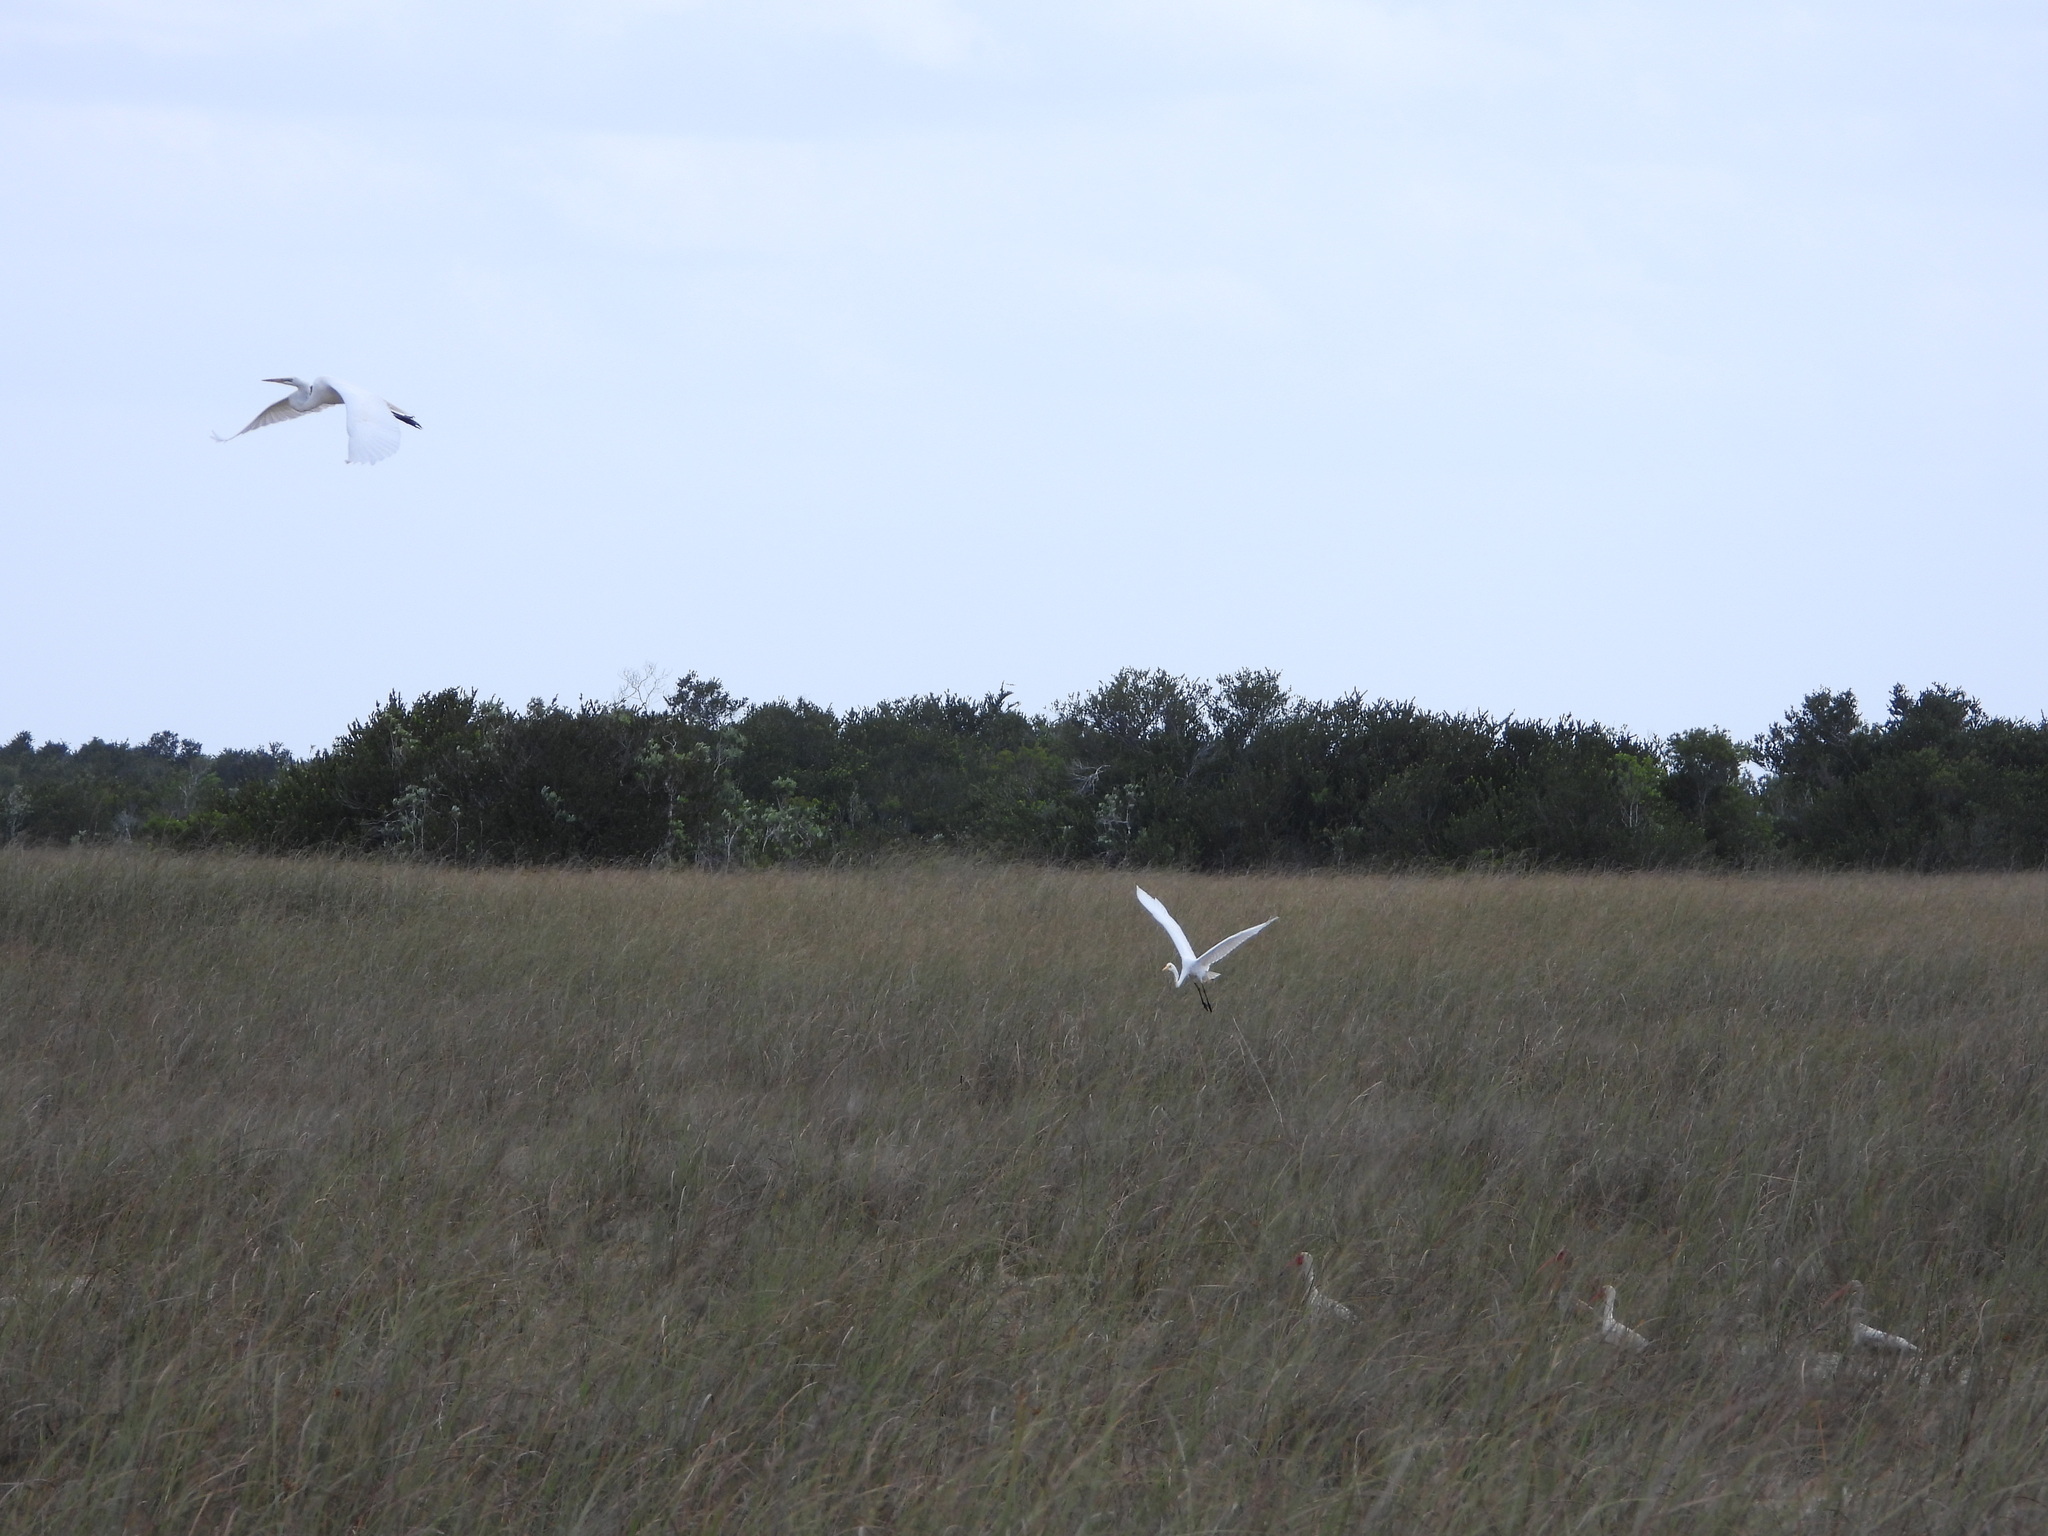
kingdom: Animalia
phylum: Chordata
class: Aves
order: Pelecaniformes
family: Ardeidae
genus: Ardea
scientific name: Ardea alba
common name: Great egret
